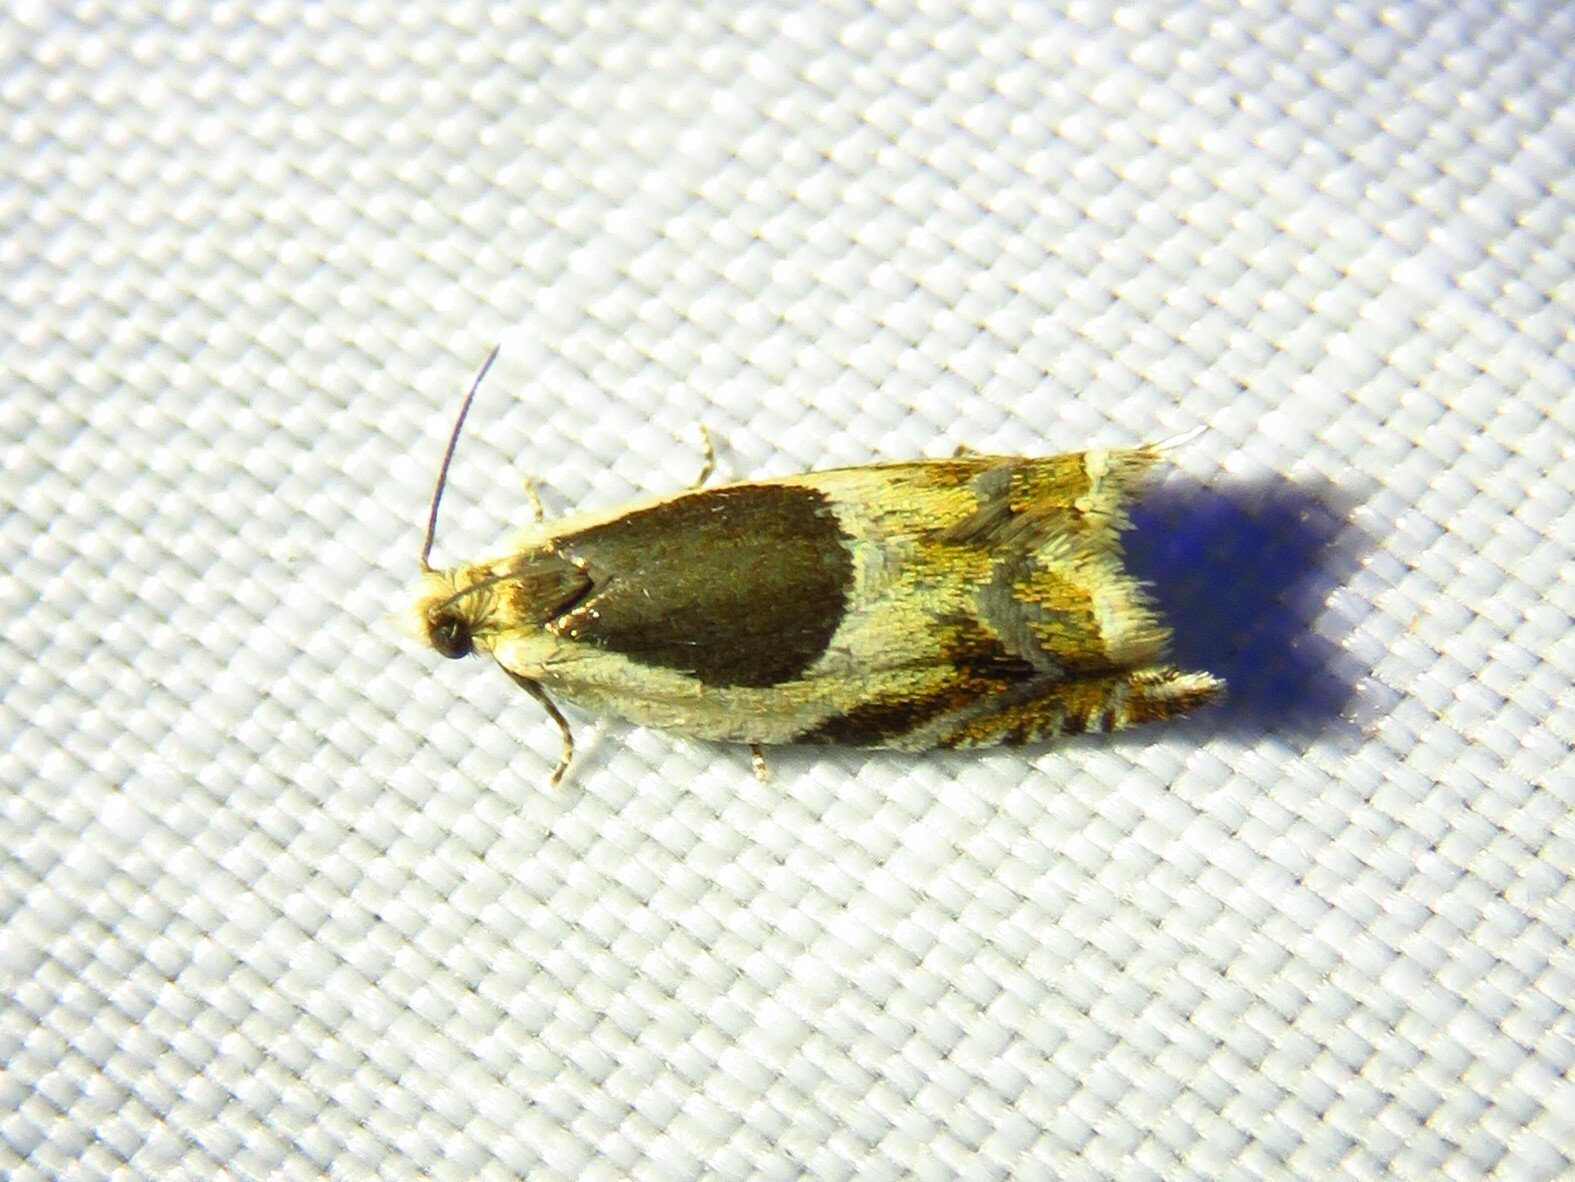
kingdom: Animalia
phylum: Arthropoda
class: Insecta
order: Lepidoptera
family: Tortricidae
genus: Ancylis
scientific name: Ancylis badiana
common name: Common roller
